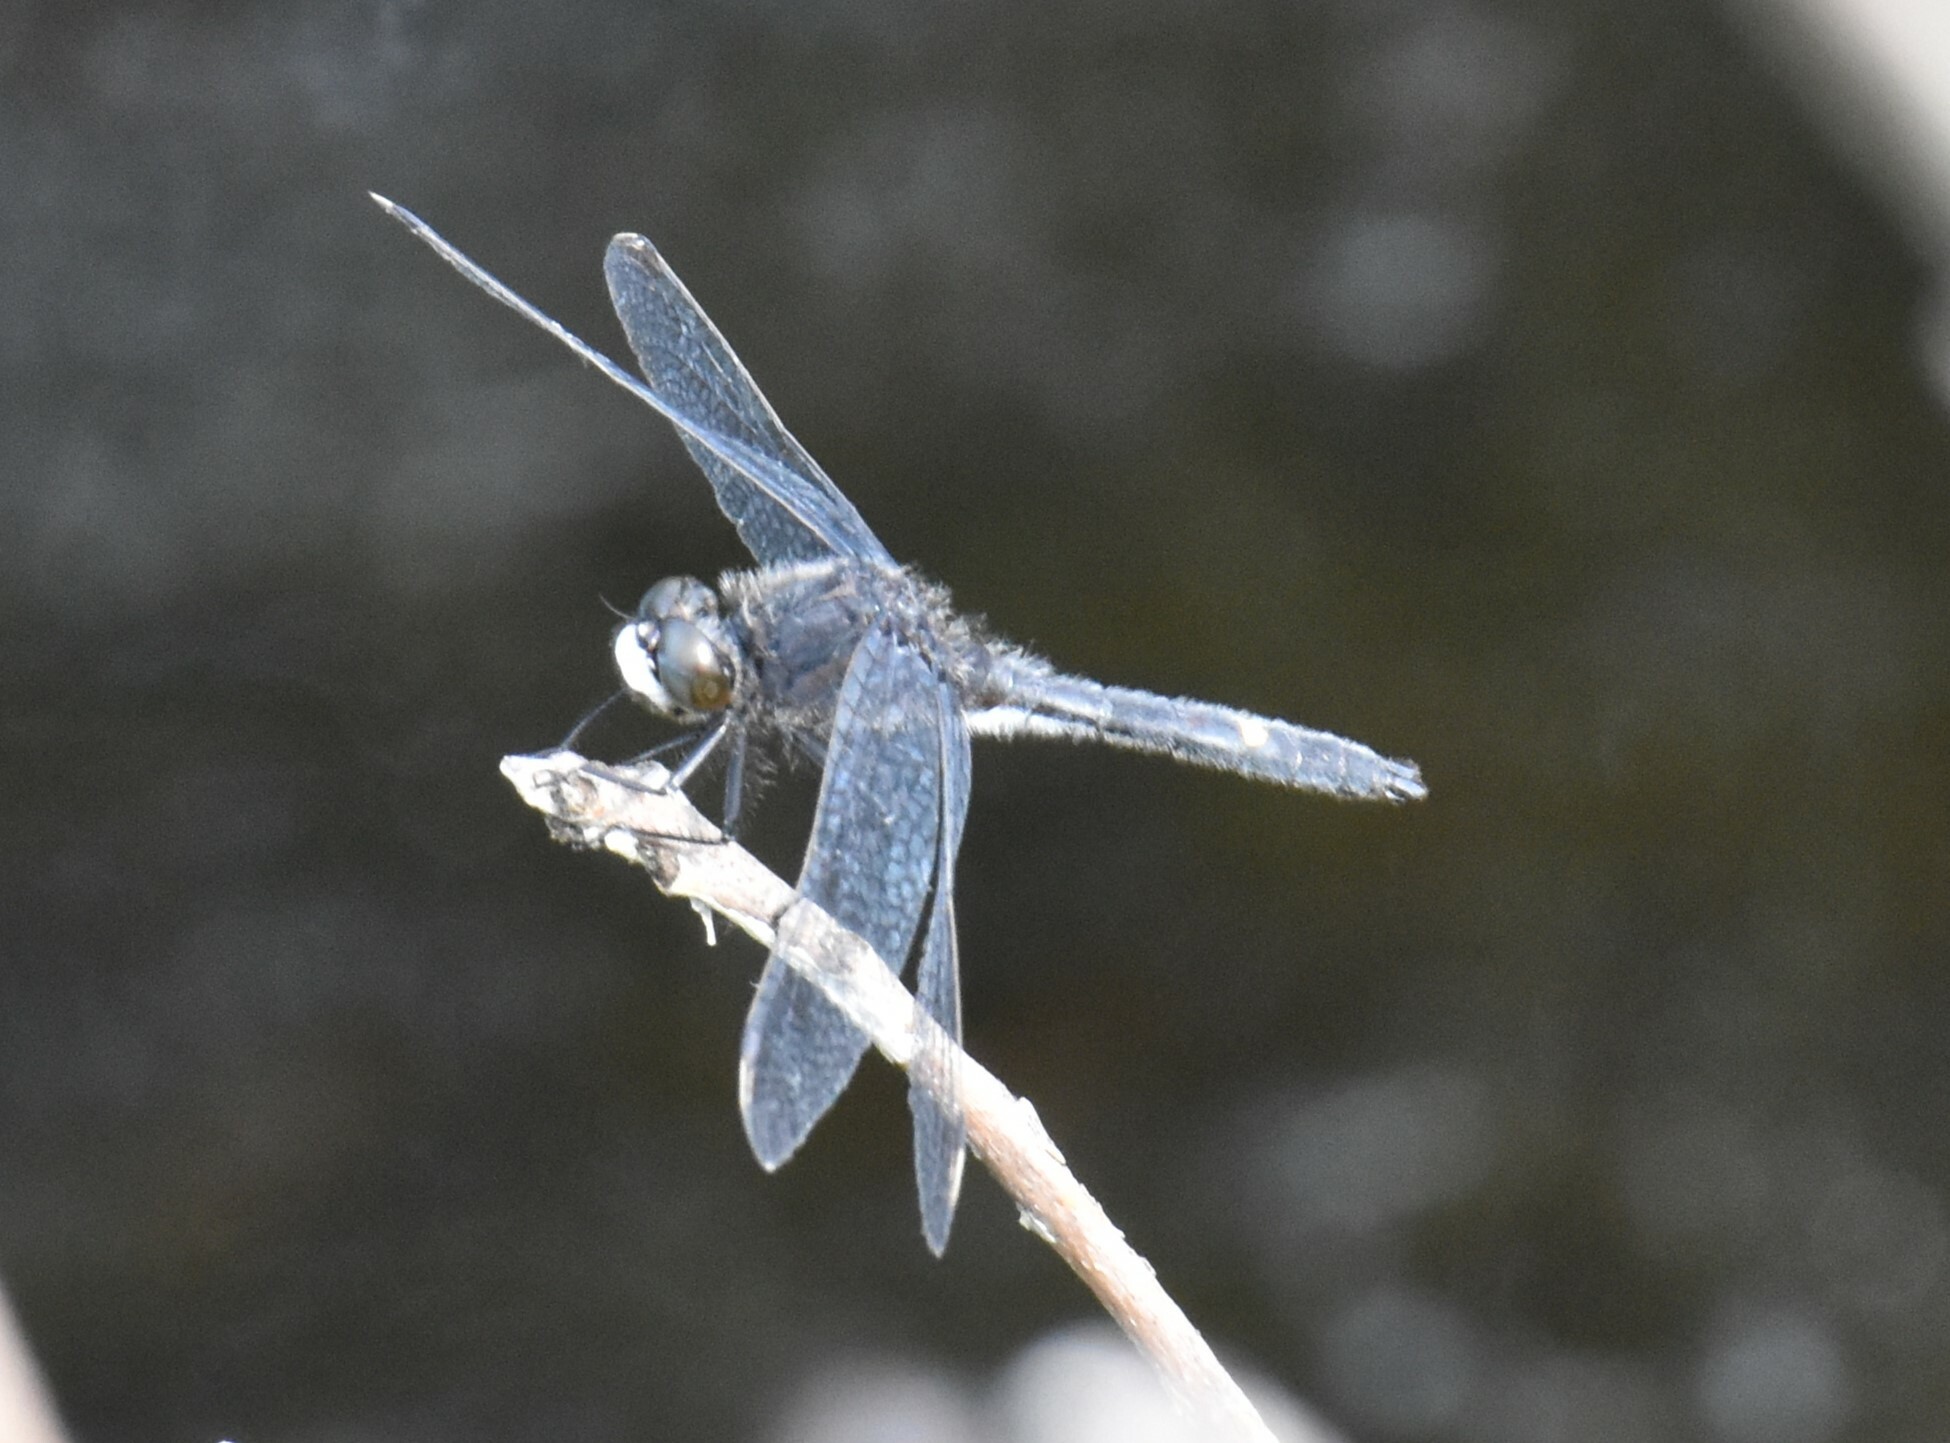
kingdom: Animalia
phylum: Arthropoda
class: Insecta
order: Odonata
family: Libellulidae
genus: Leucorrhinia
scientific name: Leucorrhinia intacta
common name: Dot-tailed whiteface
